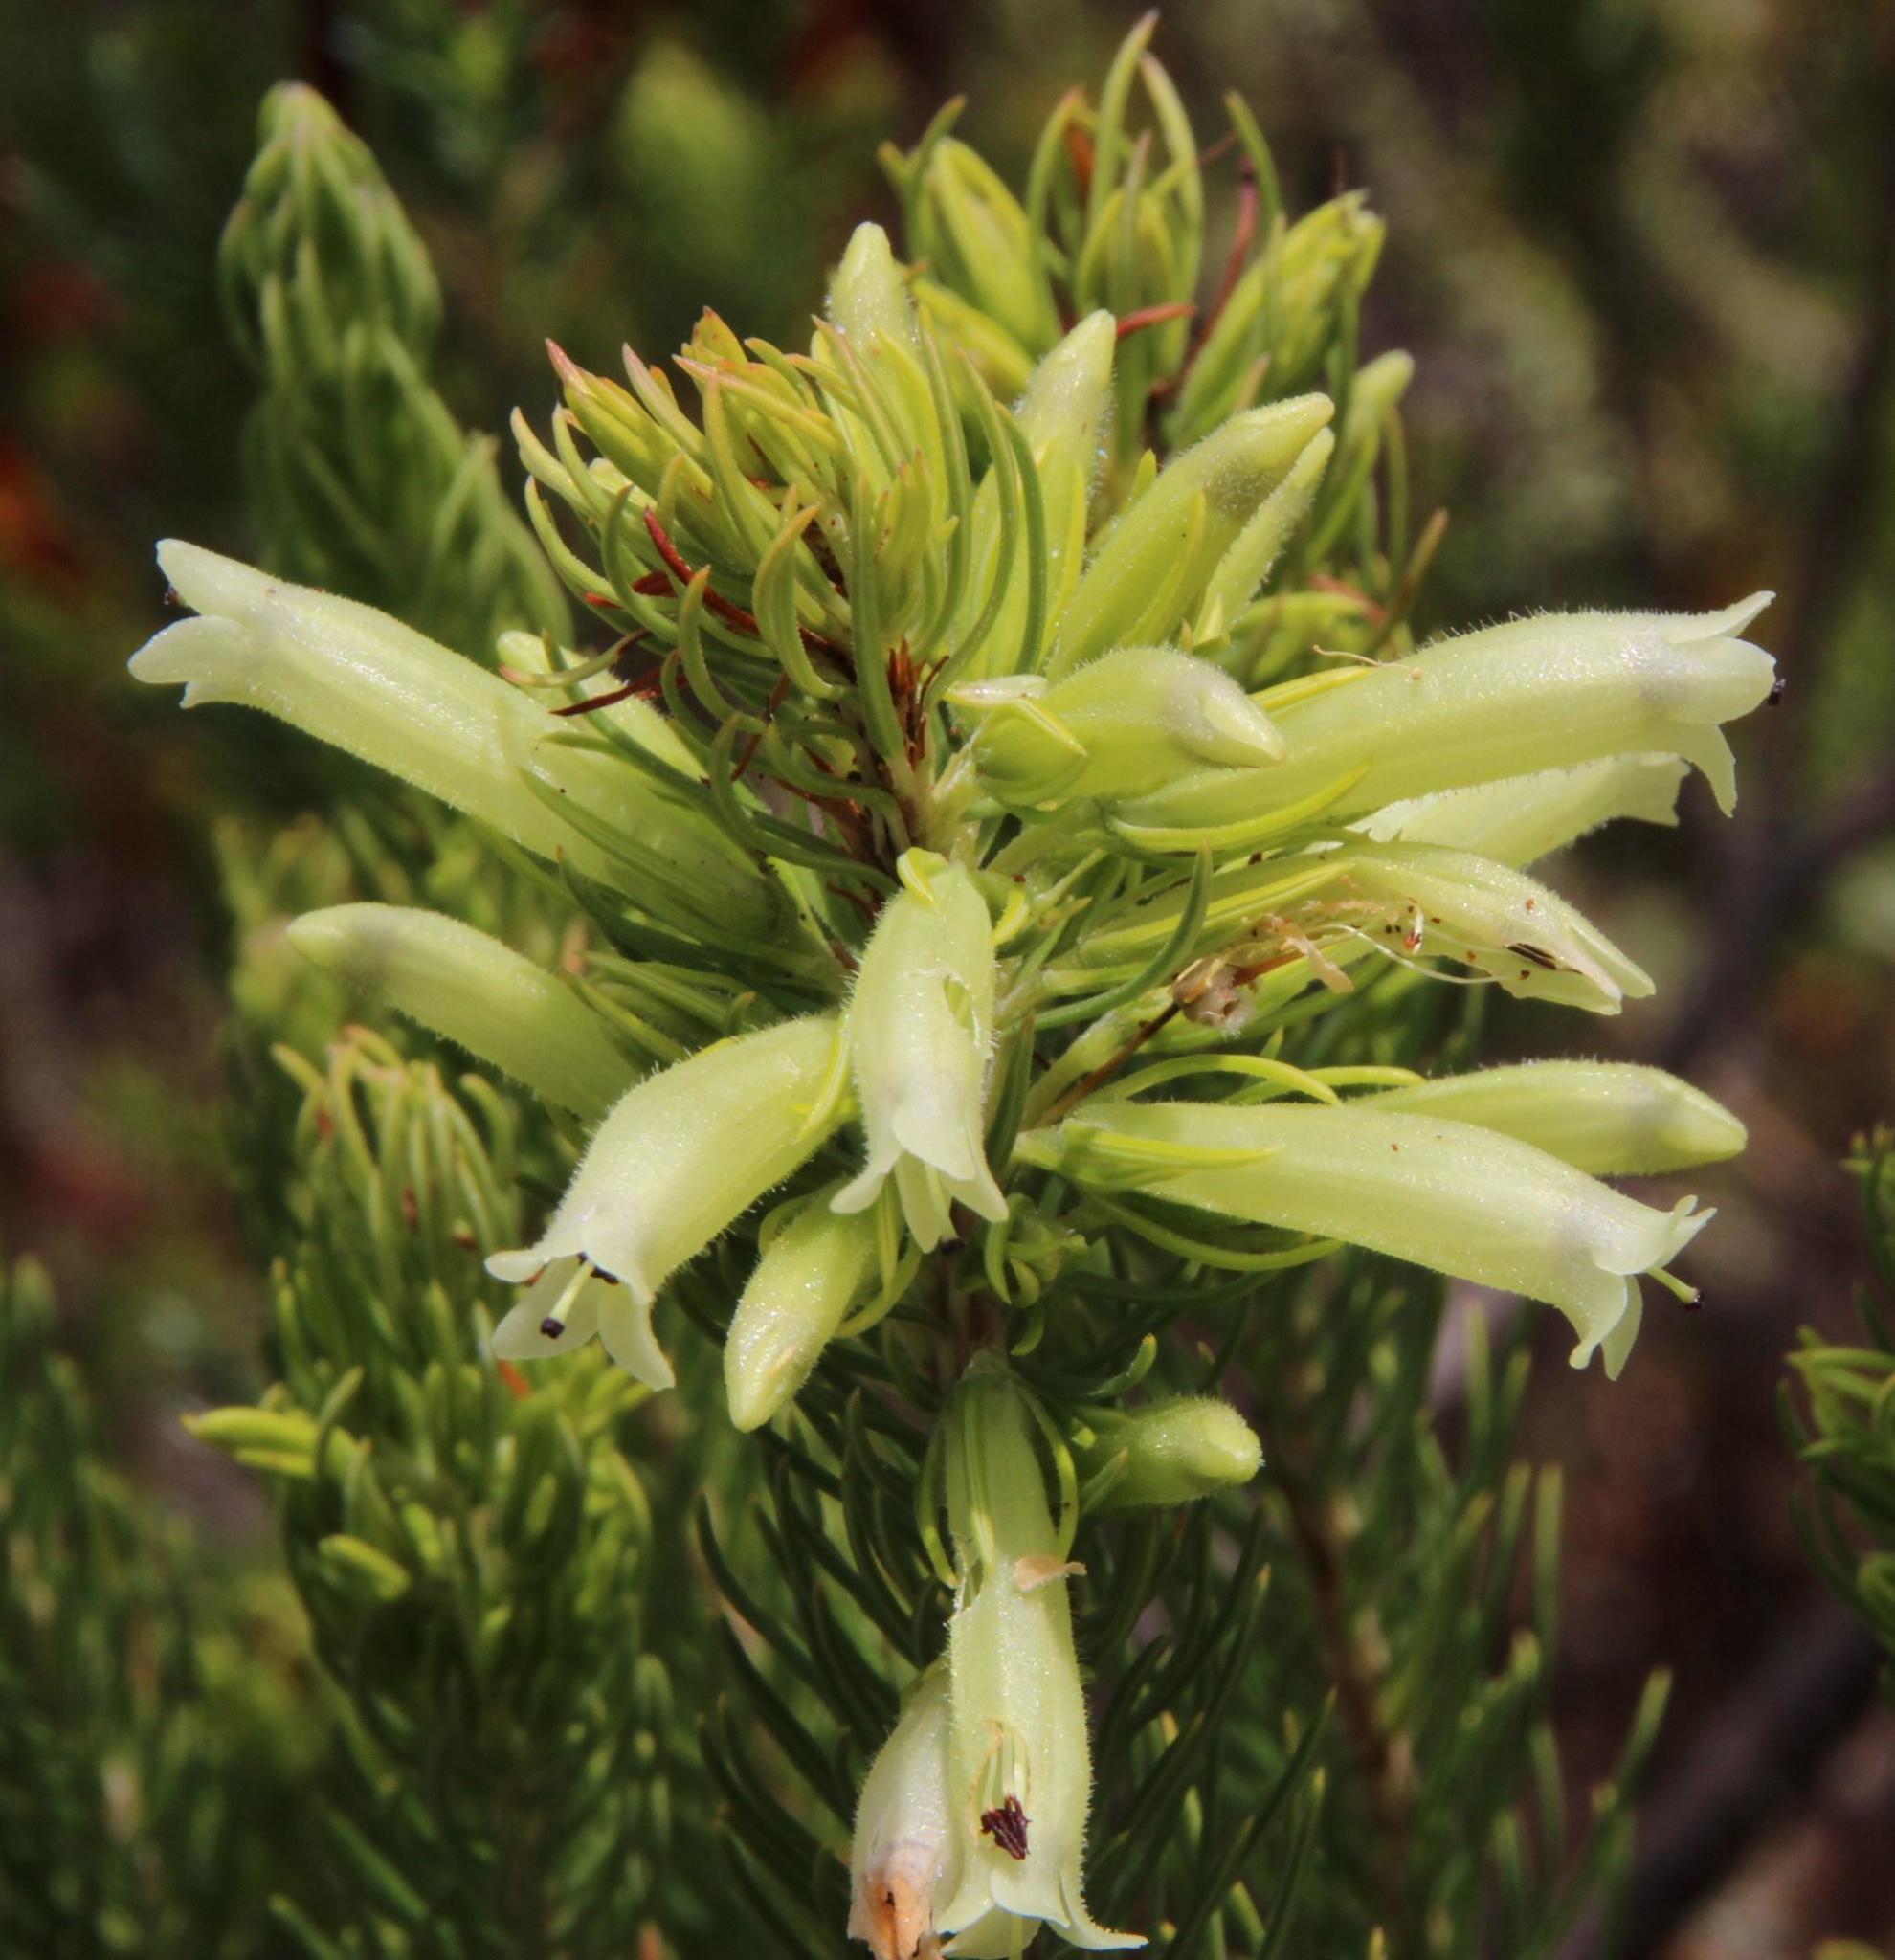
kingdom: Plantae
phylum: Tracheophyta
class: Magnoliopsida
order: Ericales
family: Ericaceae
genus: Erica
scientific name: Erica viscaria
